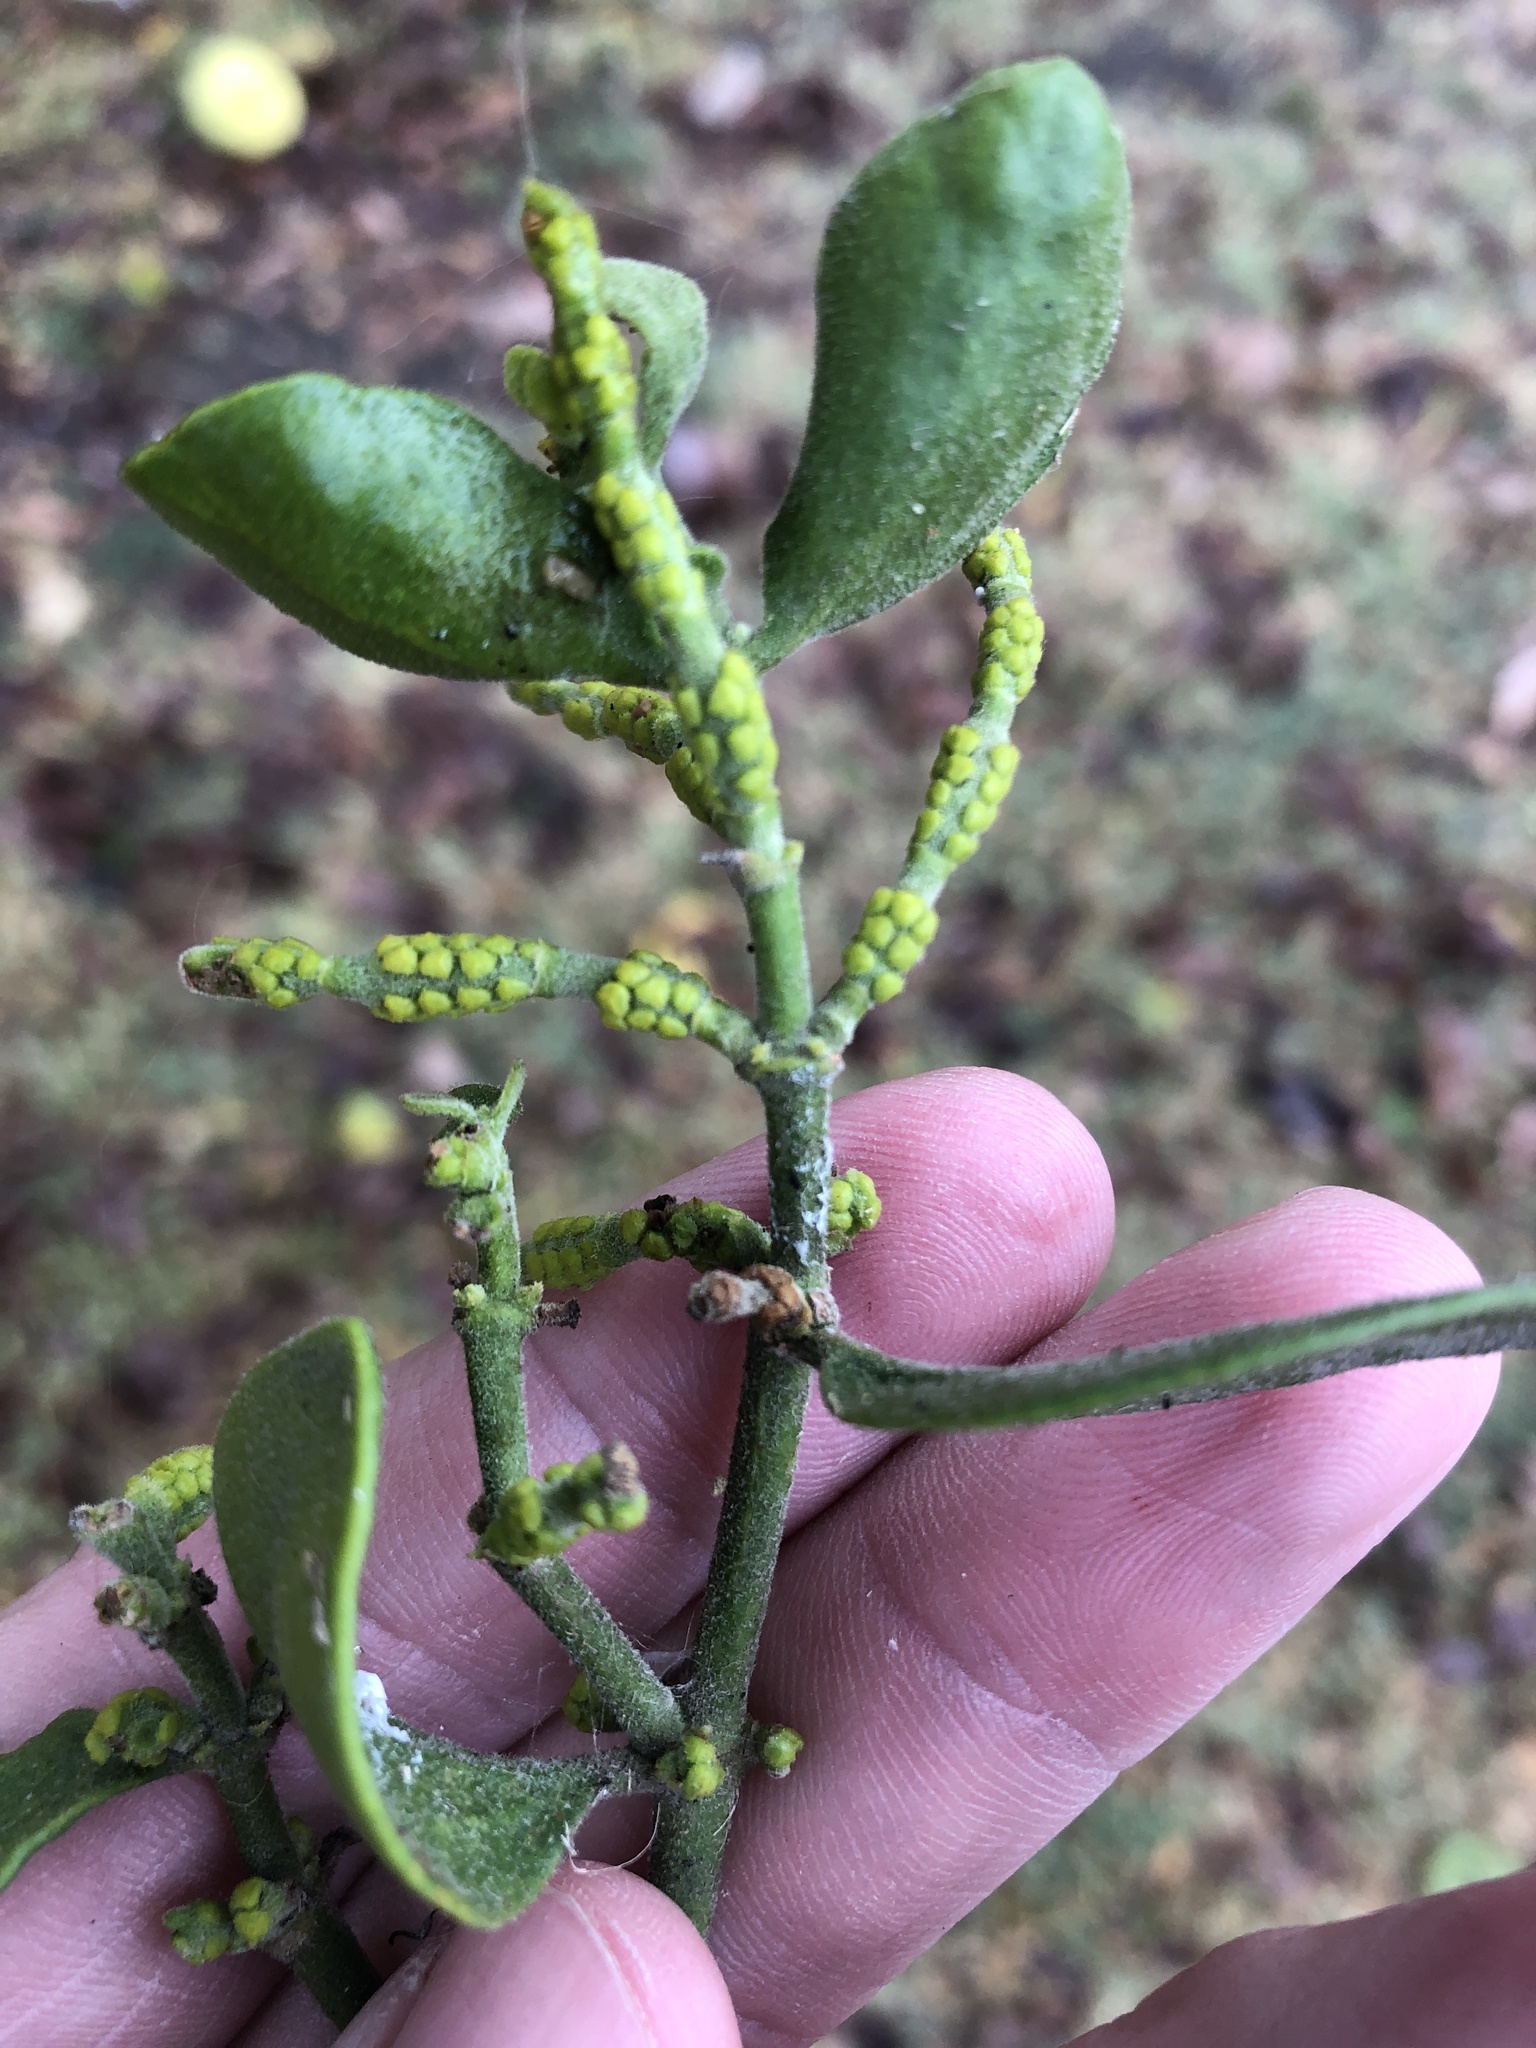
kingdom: Plantae
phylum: Tracheophyta
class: Magnoliopsida
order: Santalales
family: Viscaceae
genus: Phoradendron
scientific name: Phoradendron leucarpum
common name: Pacific mistletoe
